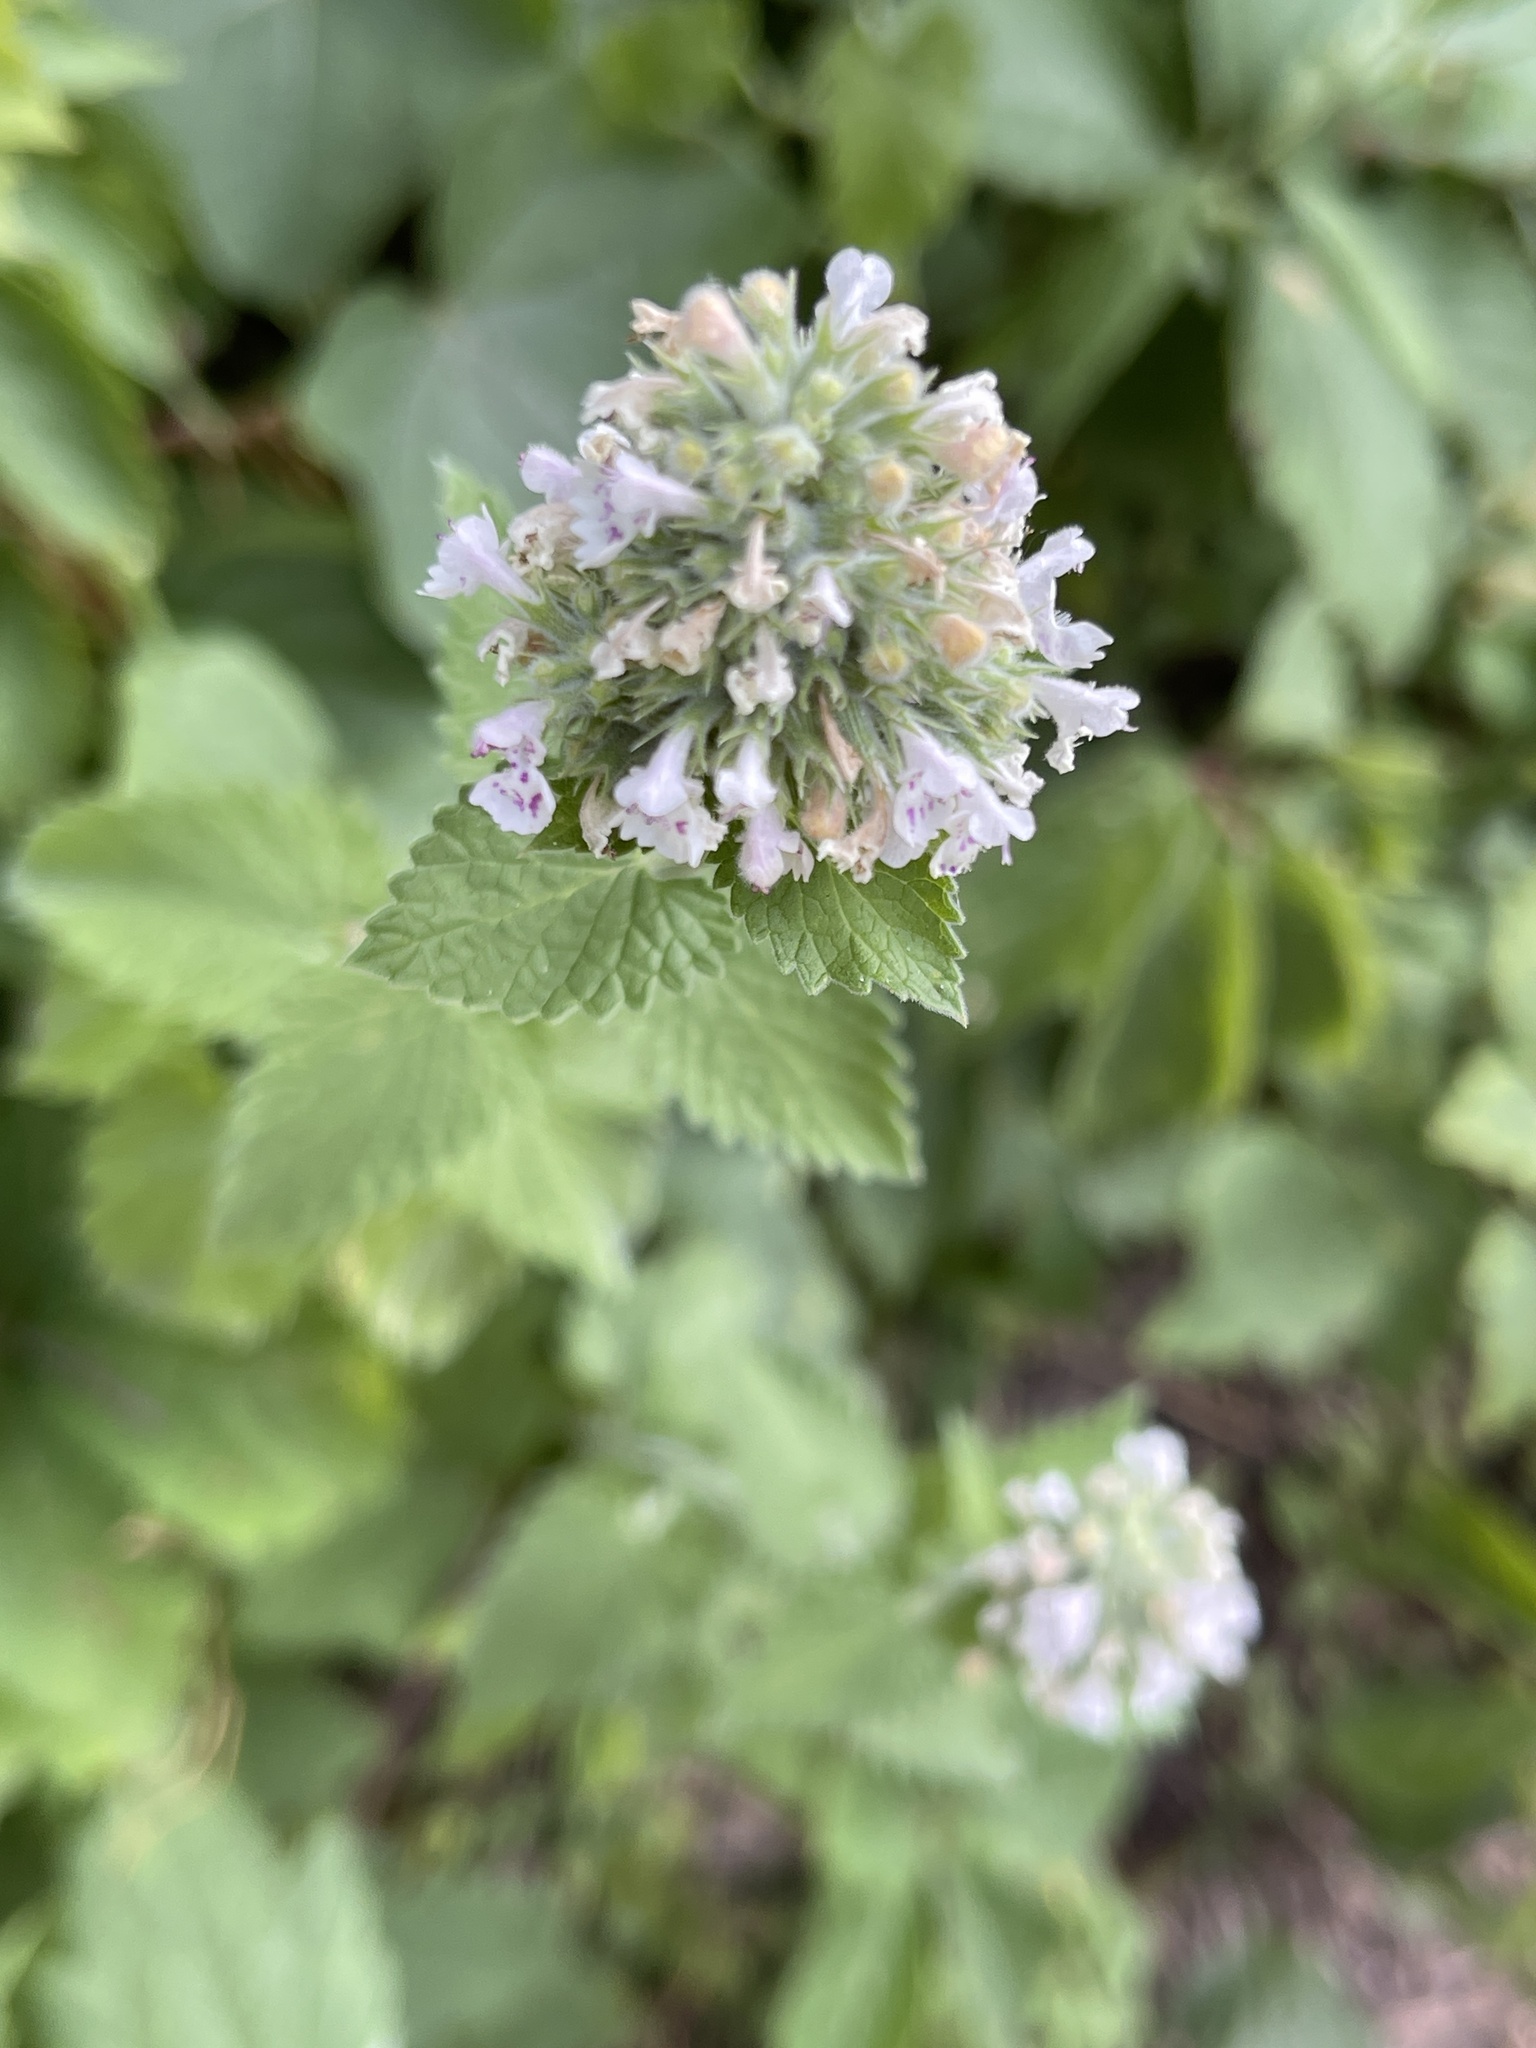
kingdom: Plantae
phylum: Tracheophyta
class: Magnoliopsida
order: Lamiales
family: Lamiaceae
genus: Nepeta
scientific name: Nepeta cataria
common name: Catnip
